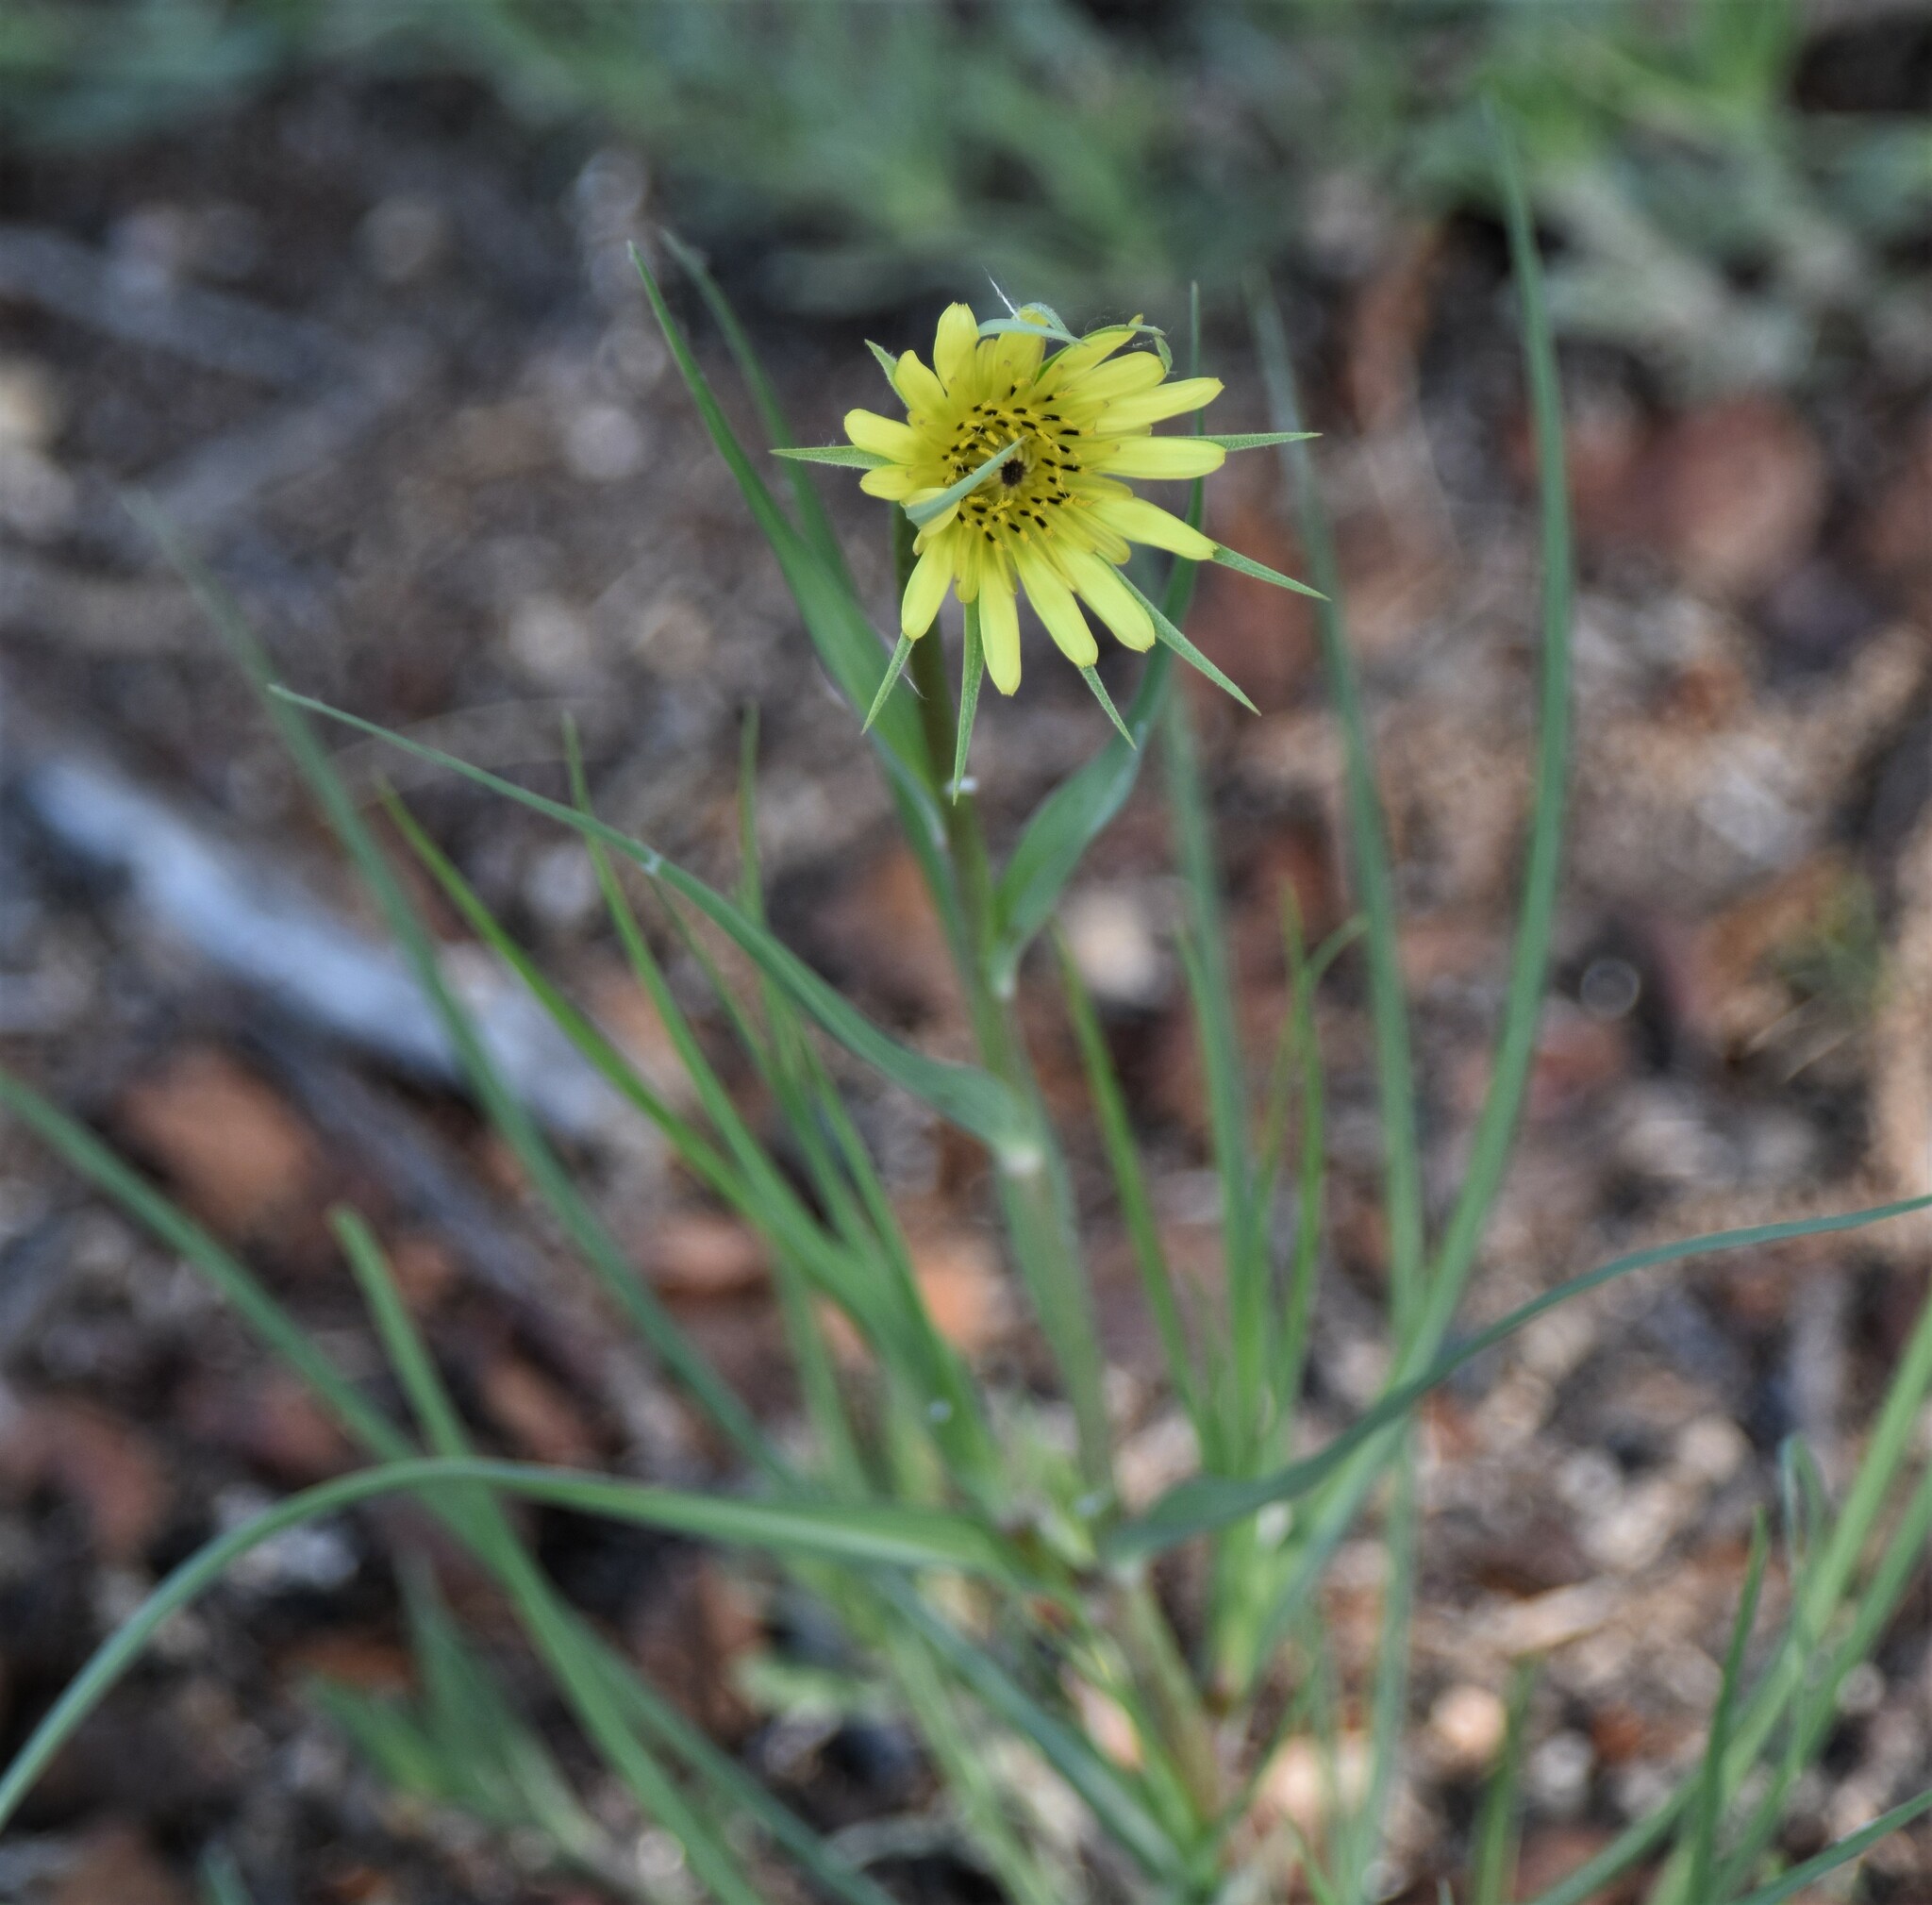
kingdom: Plantae
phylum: Tracheophyta
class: Magnoliopsida
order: Asterales
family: Asteraceae
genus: Tragopogon
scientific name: Tragopogon dubius
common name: Yellow salsify
